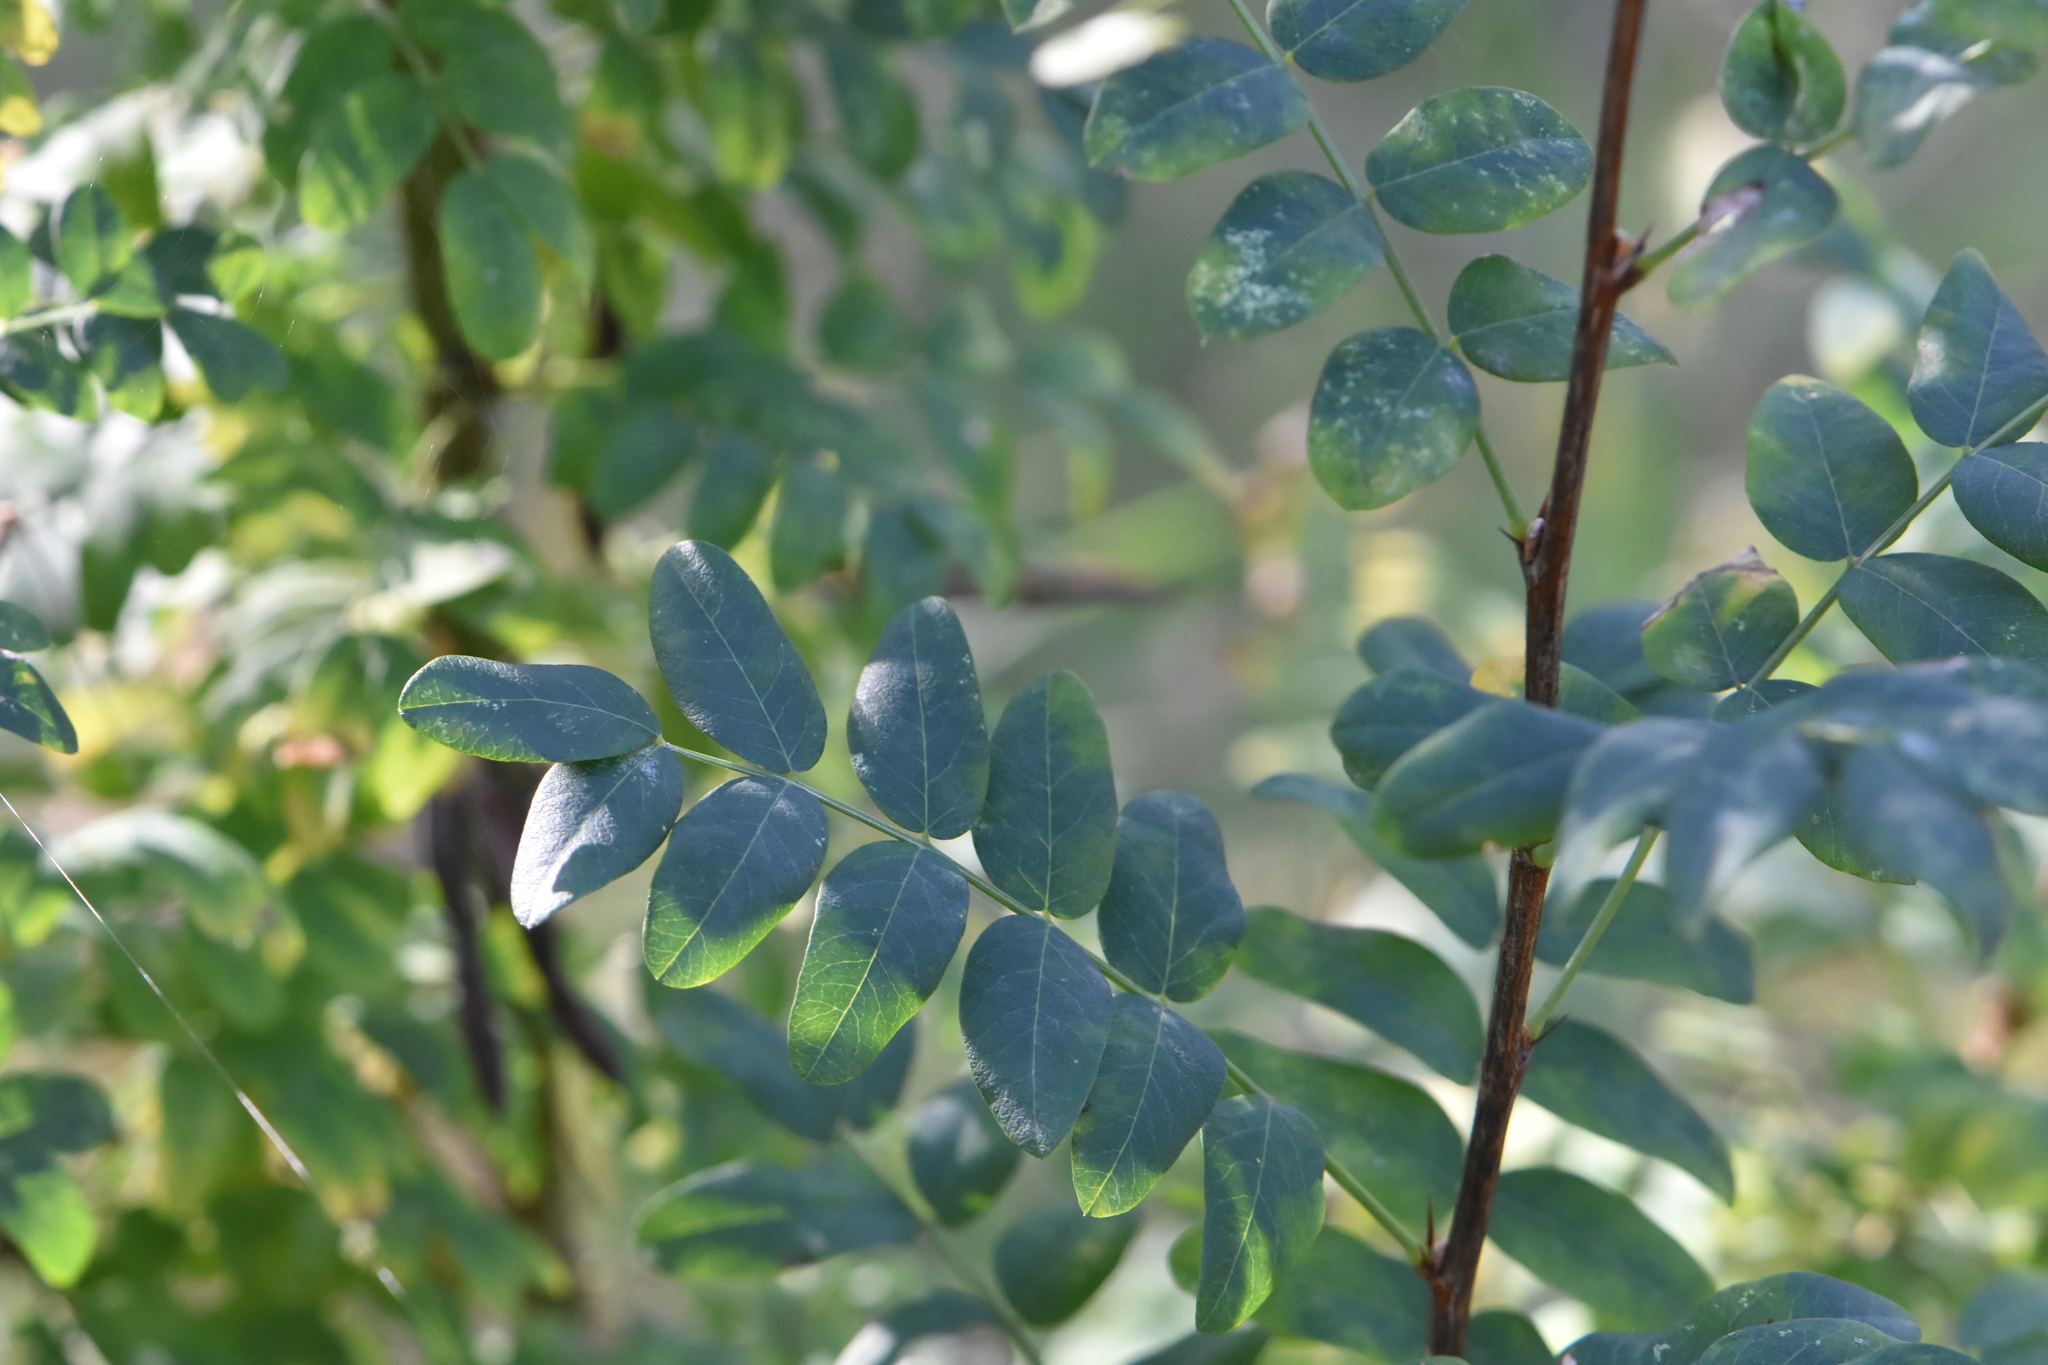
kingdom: Plantae
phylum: Tracheophyta
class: Magnoliopsida
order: Fabales
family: Fabaceae
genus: Caragana
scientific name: Caragana arborescens
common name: Siberian peashrub
